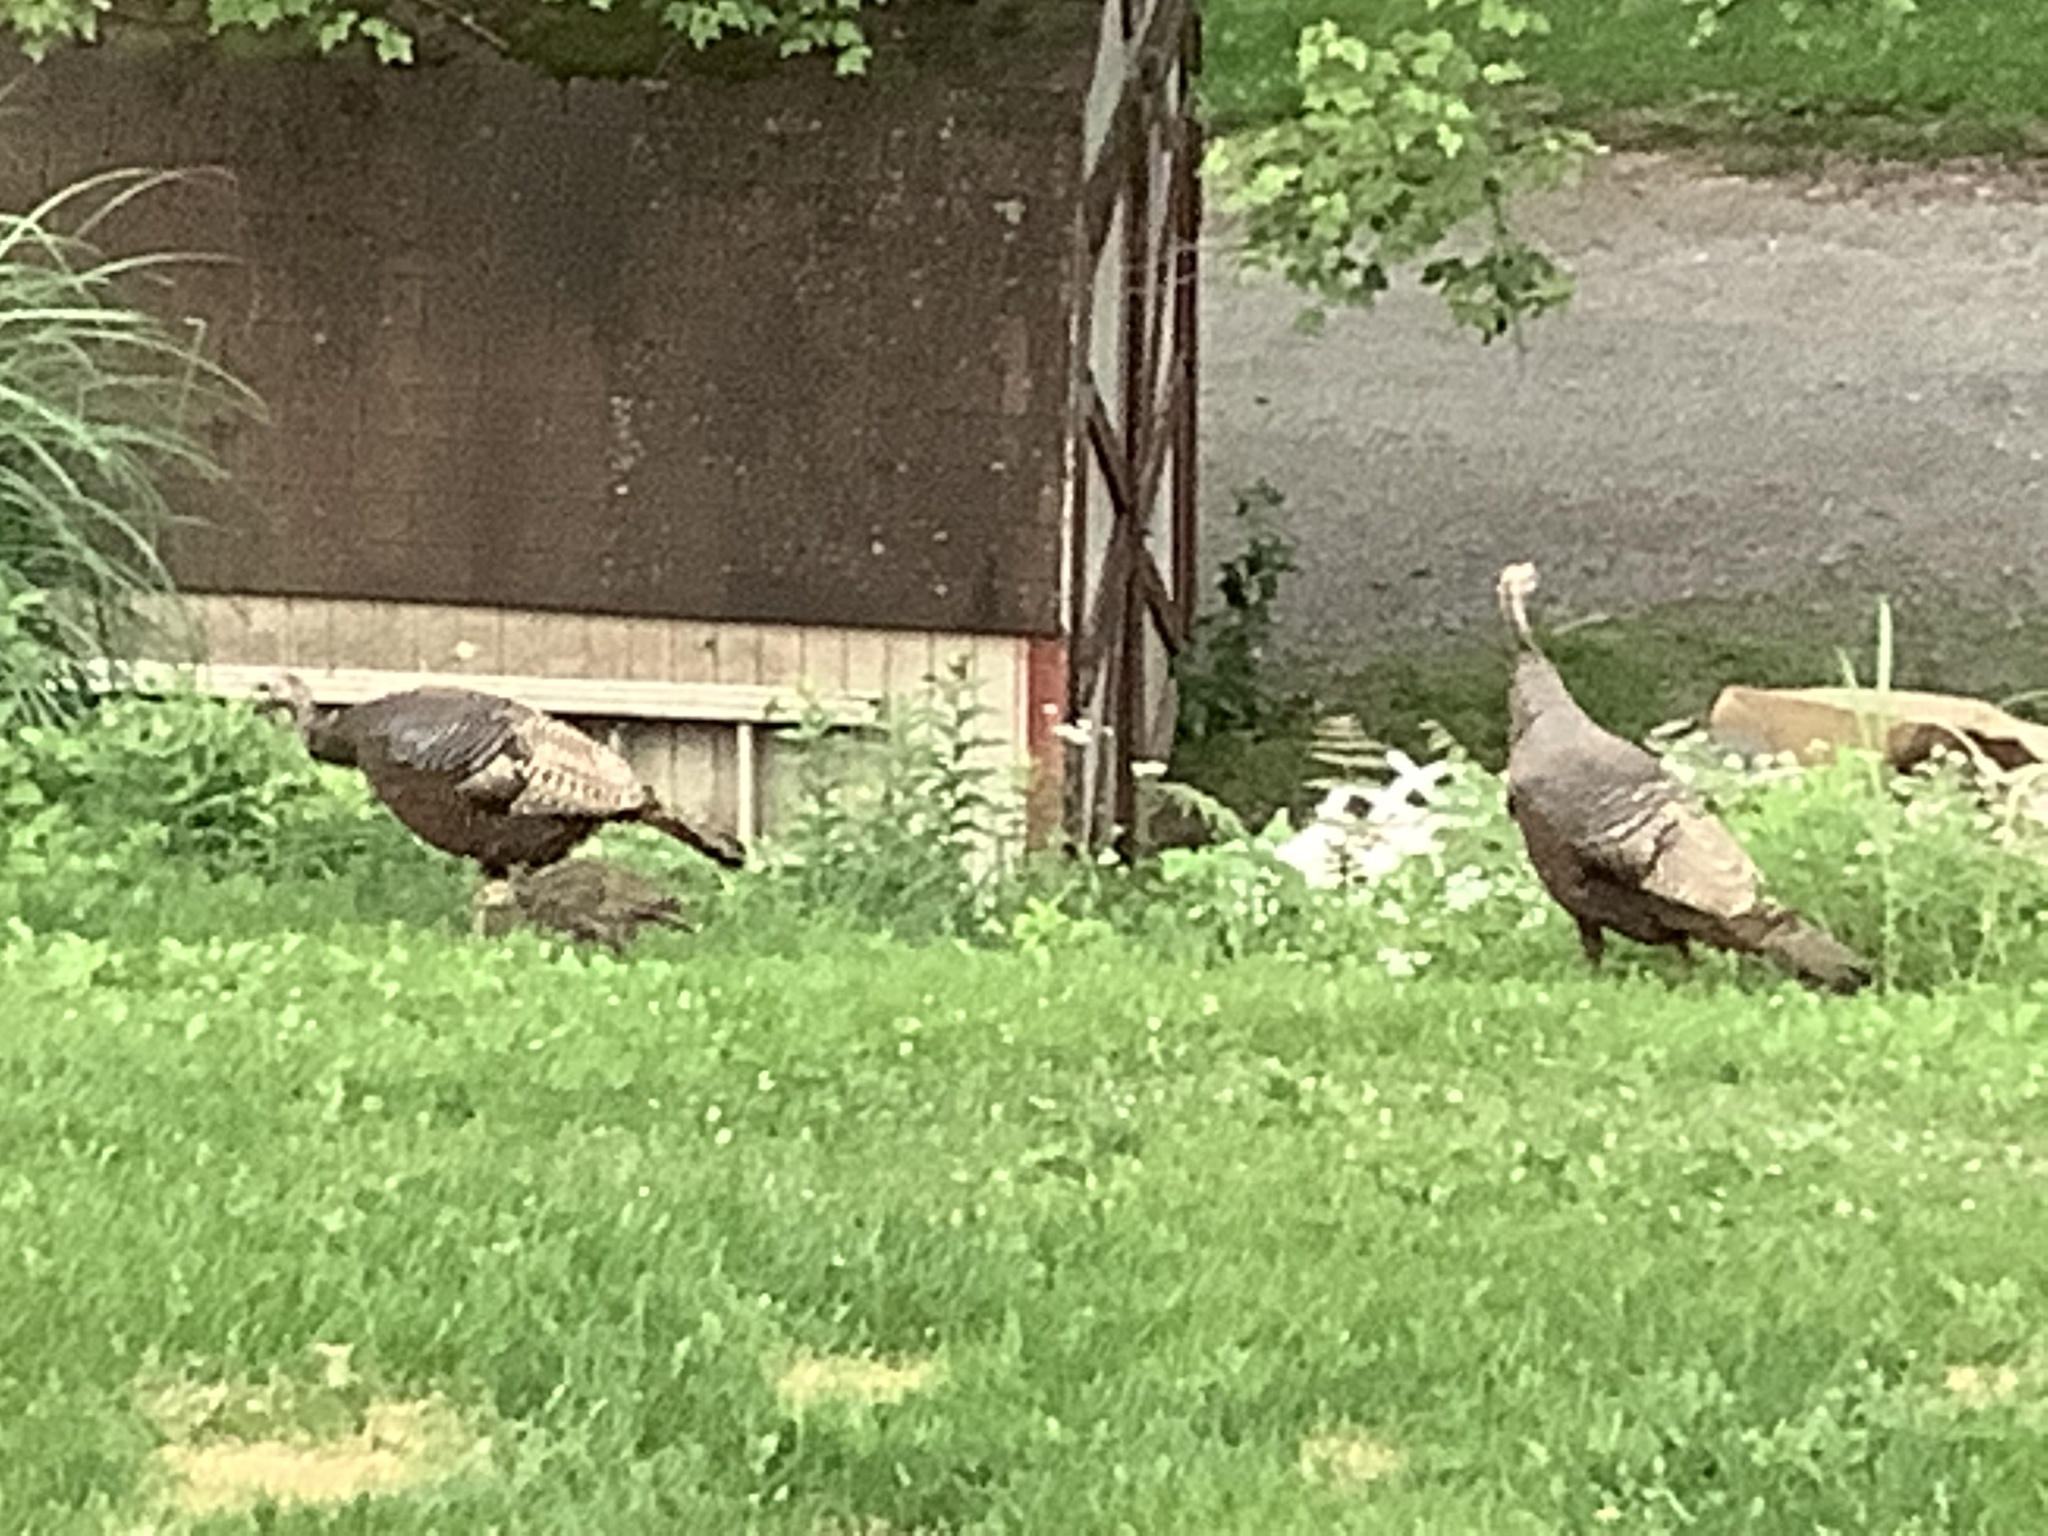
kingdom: Animalia
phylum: Chordata
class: Aves
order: Galliformes
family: Phasianidae
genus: Meleagris
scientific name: Meleagris gallopavo
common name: Wild turkey
